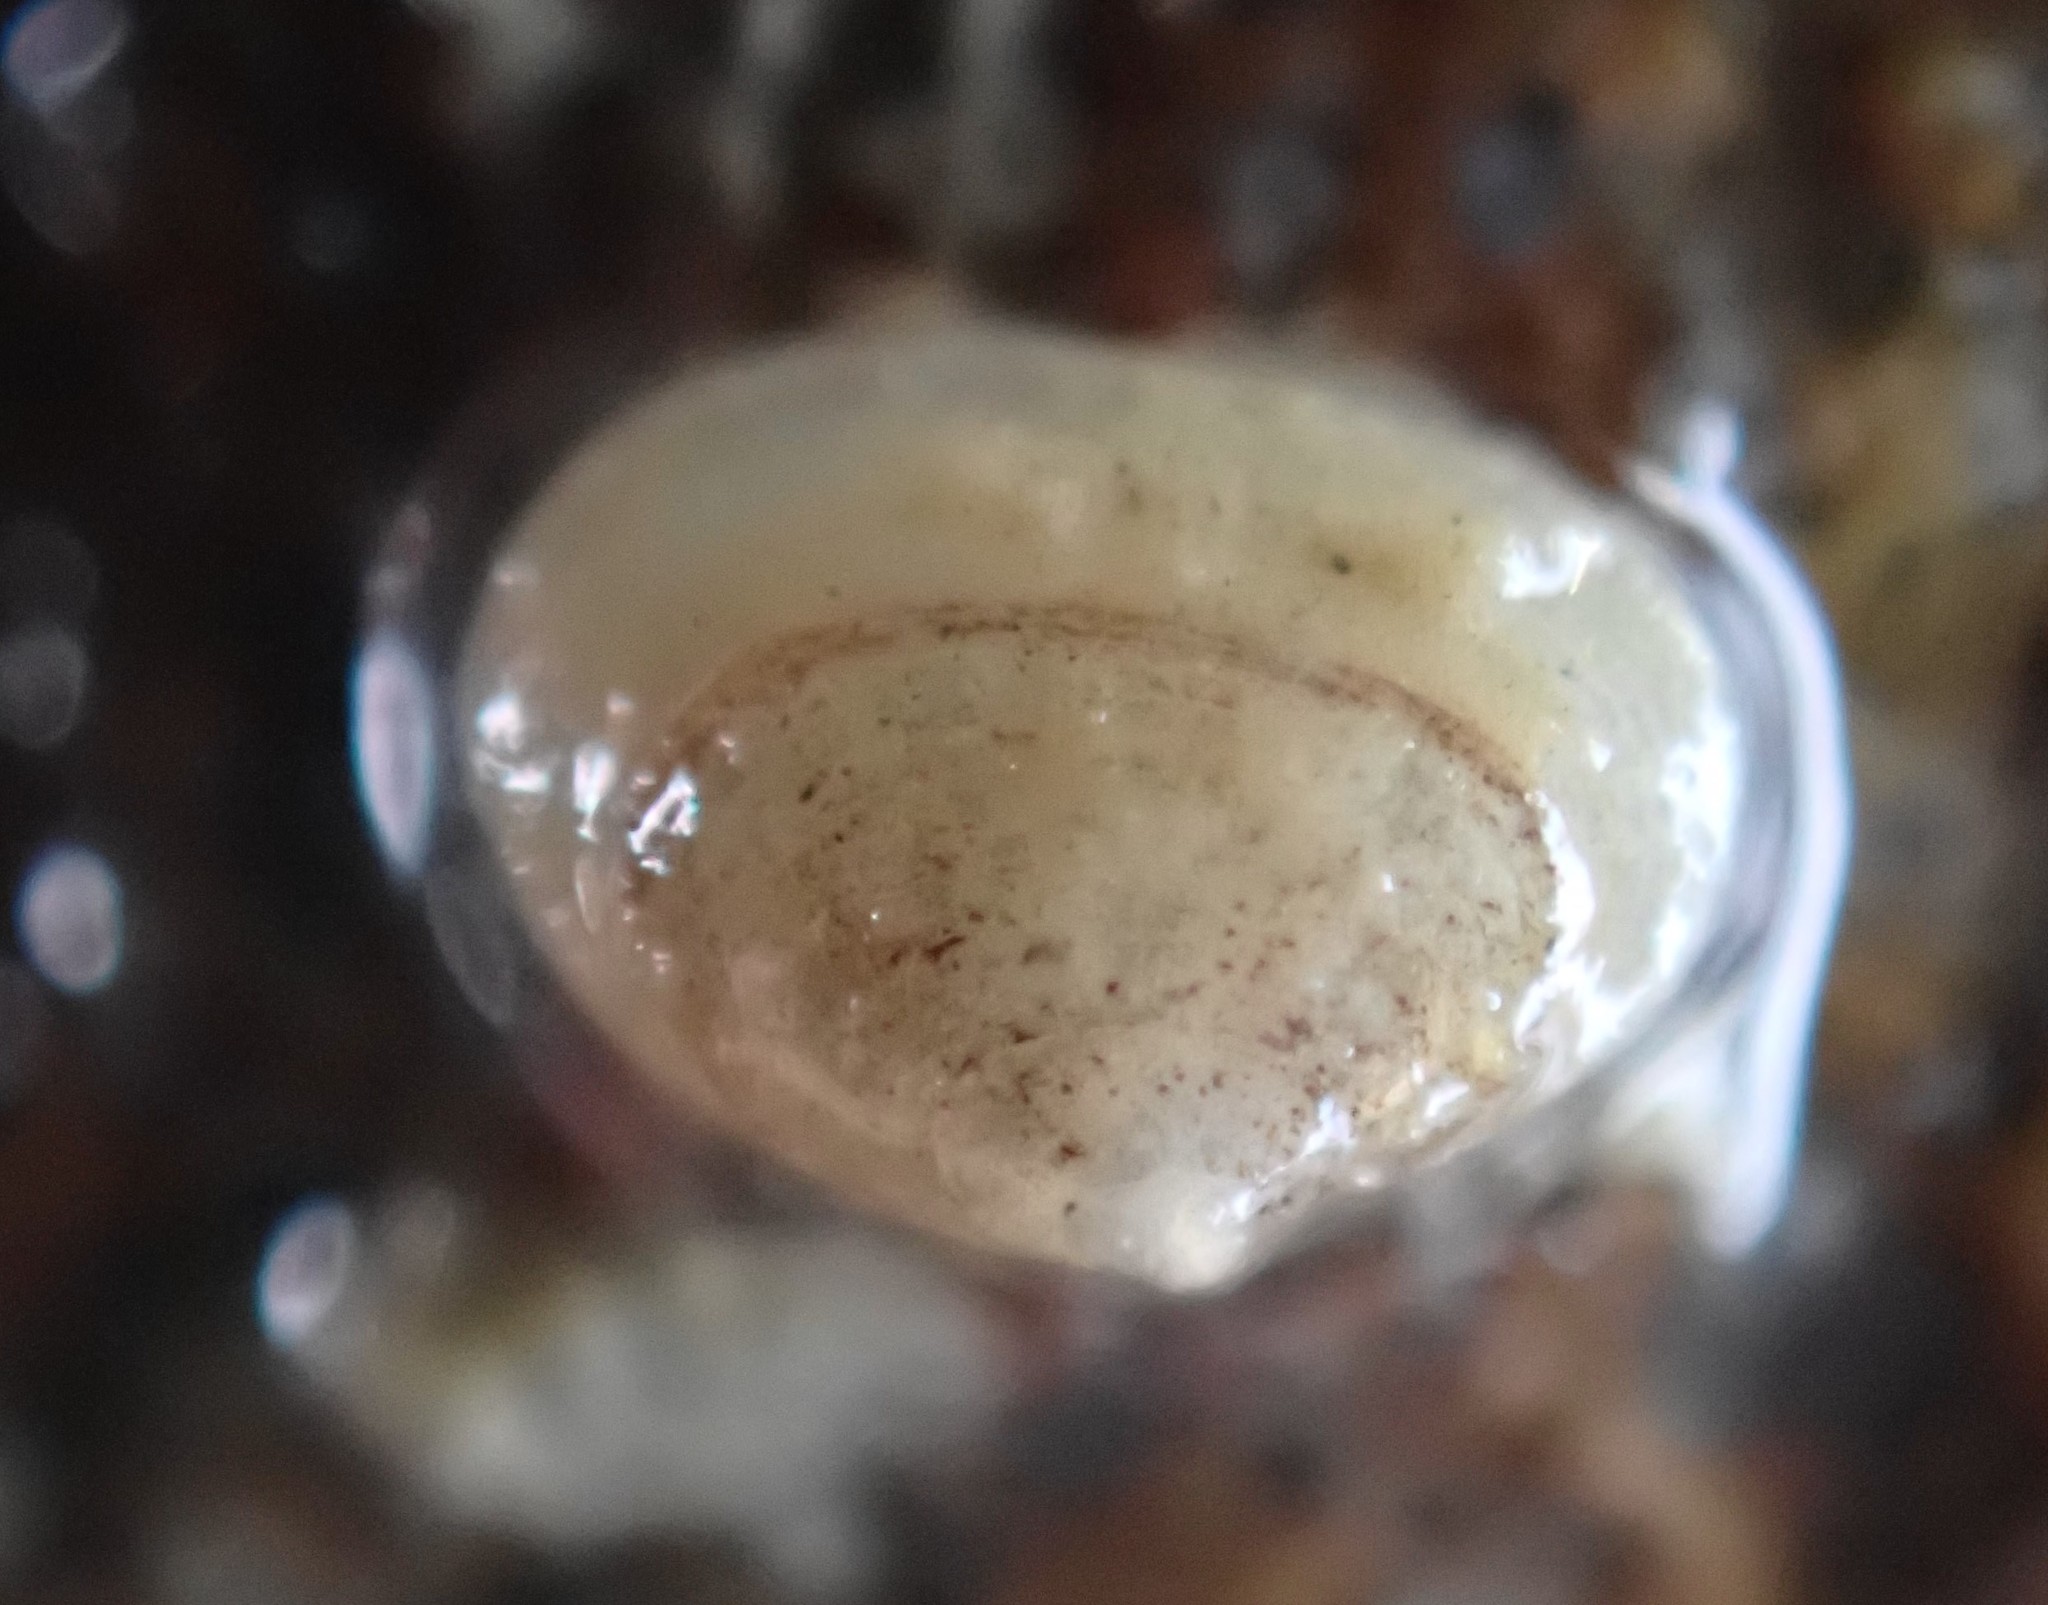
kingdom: Animalia
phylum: Mollusca
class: Bivalvia
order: Galeommatida
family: Lasaeidae
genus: Borniola
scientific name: Borniola reniformis
